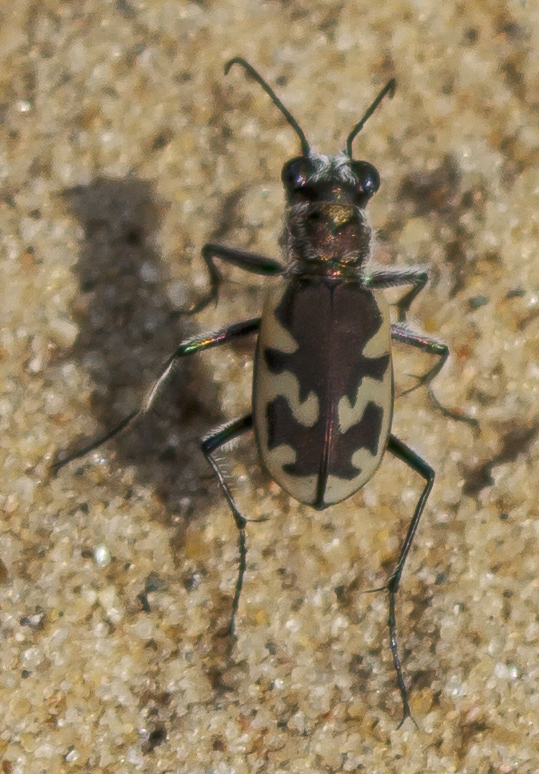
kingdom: Animalia
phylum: Arthropoda
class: Insecta
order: Coleoptera
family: Carabidae
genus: Cicindela
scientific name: Cicindela formosa
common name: Big sand tiger beetle
